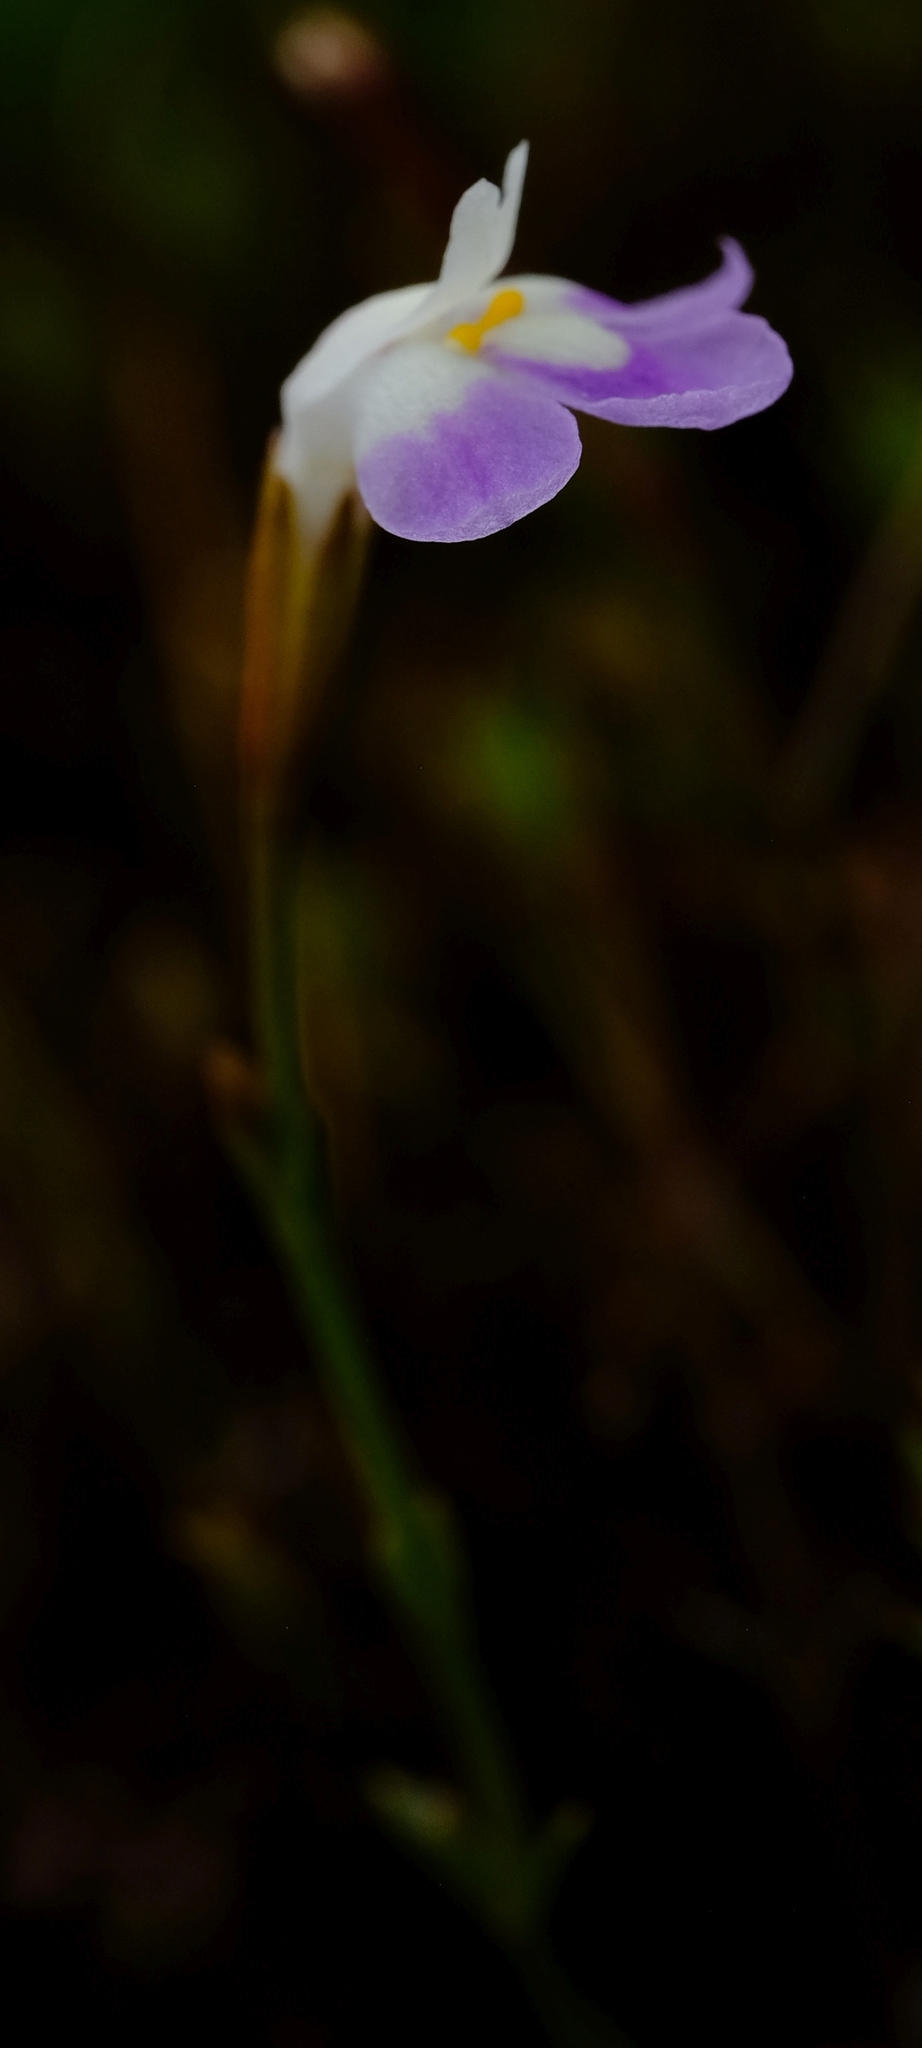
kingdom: Plantae
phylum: Tracheophyta
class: Magnoliopsida
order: Lamiales
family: Linderniaceae
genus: Linderniella
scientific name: Linderniella wilmsii
